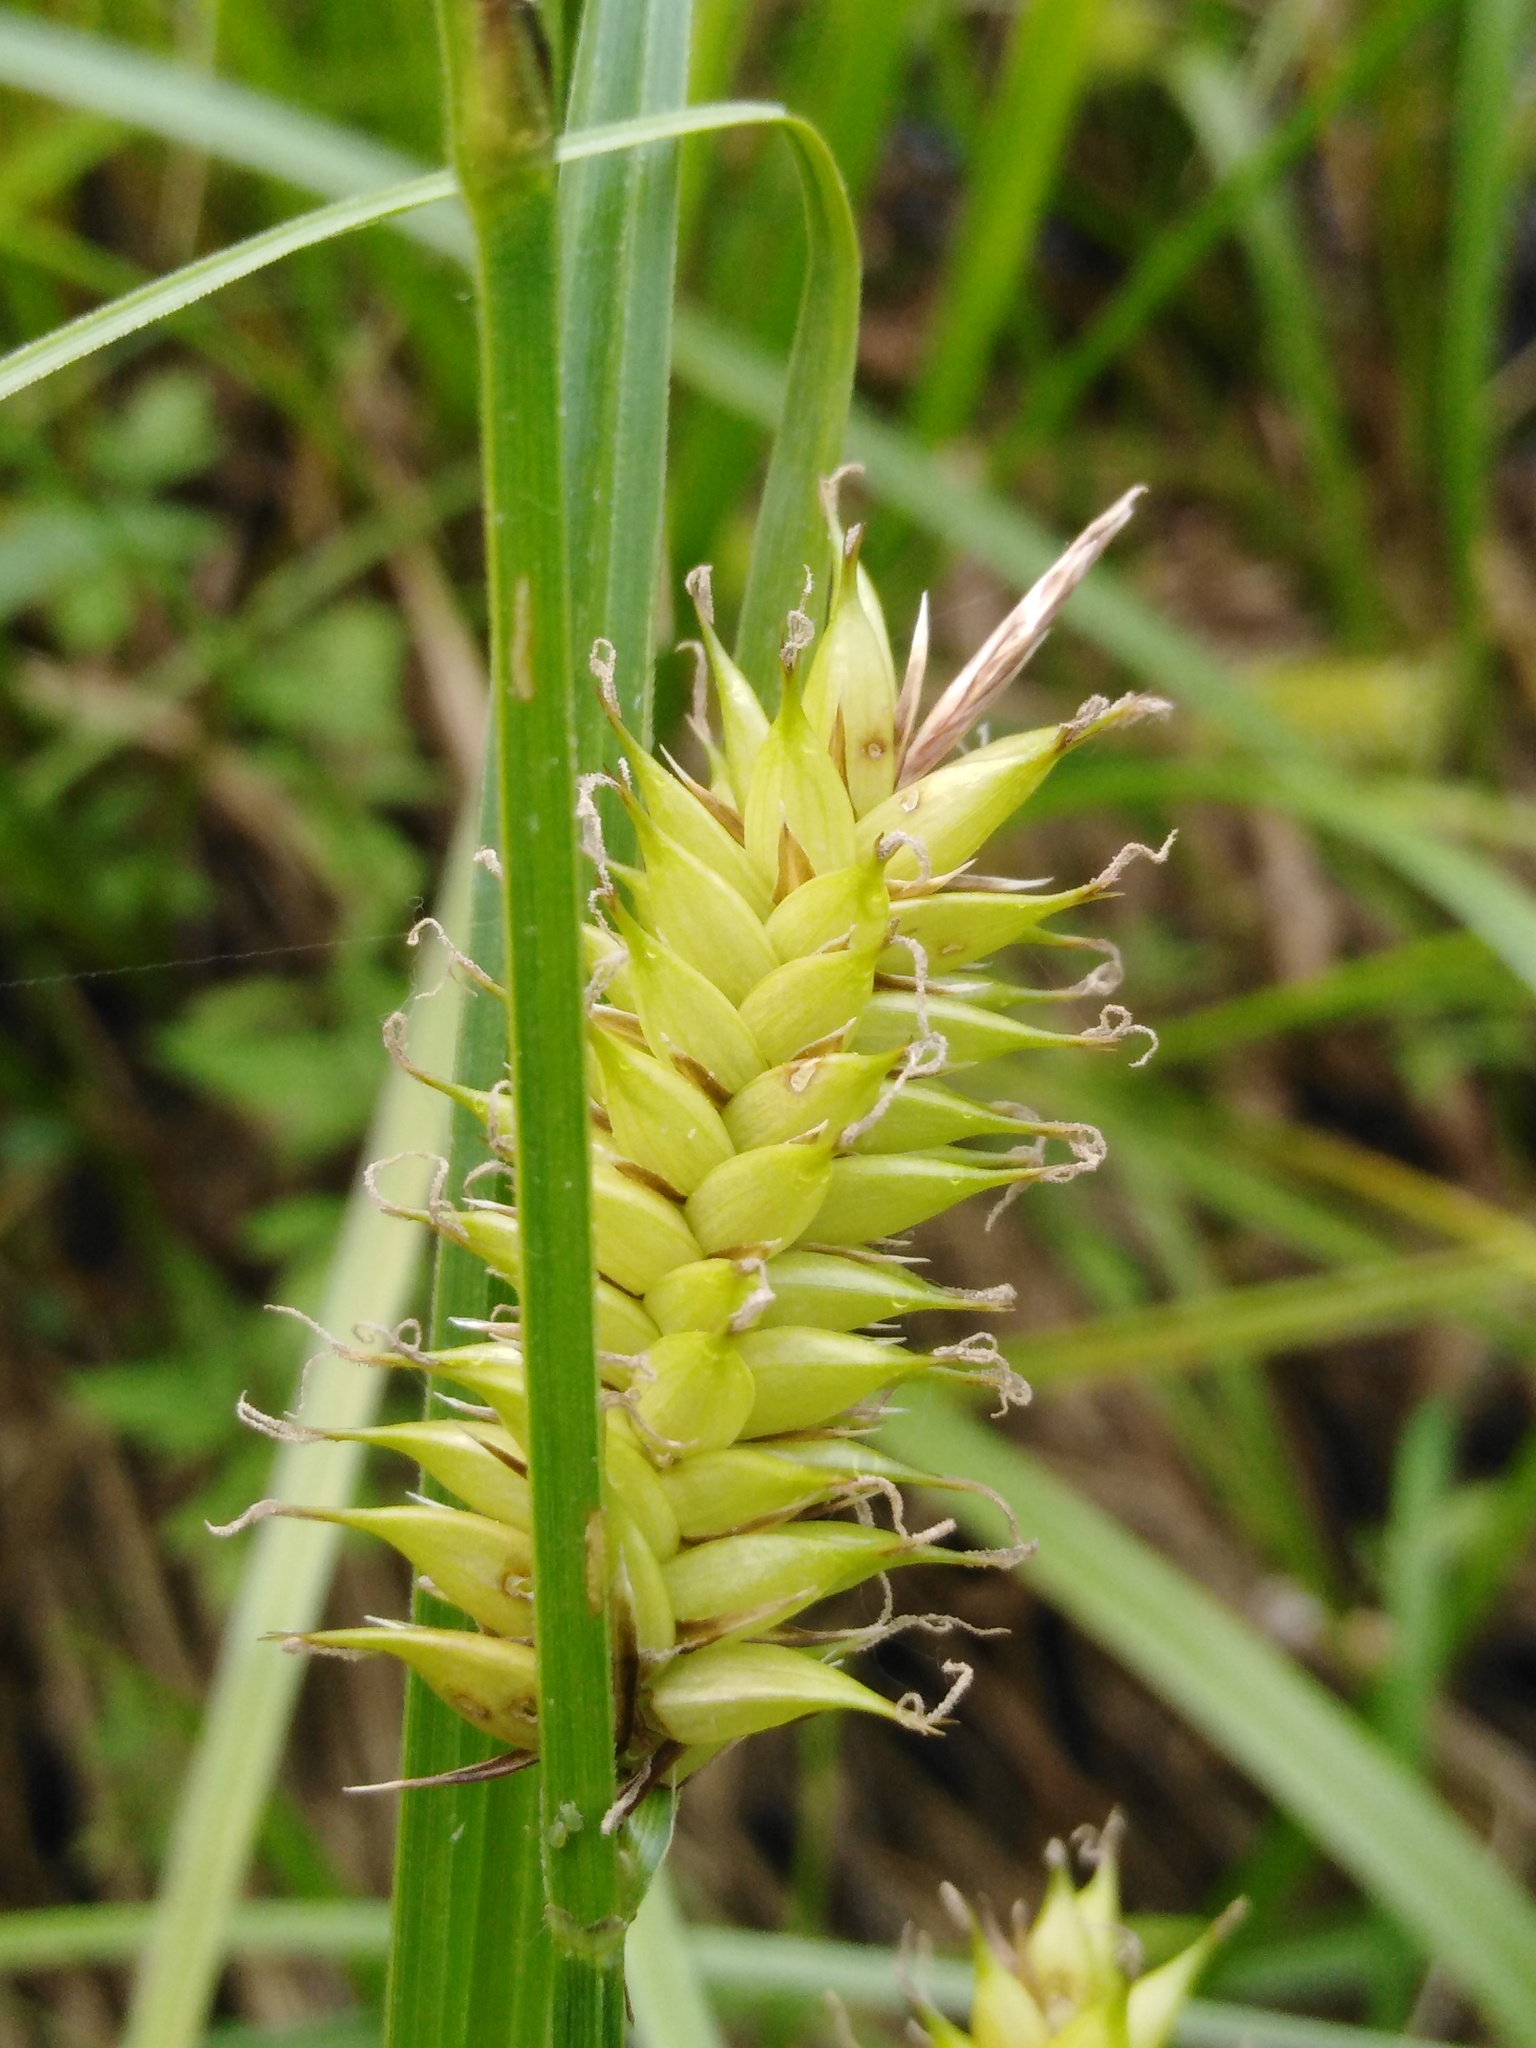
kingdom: Plantae
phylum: Tracheophyta
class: Liliopsida
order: Poales
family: Cyperaceae
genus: Carex
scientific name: Carex vesicaria
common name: Bladder-sedge
